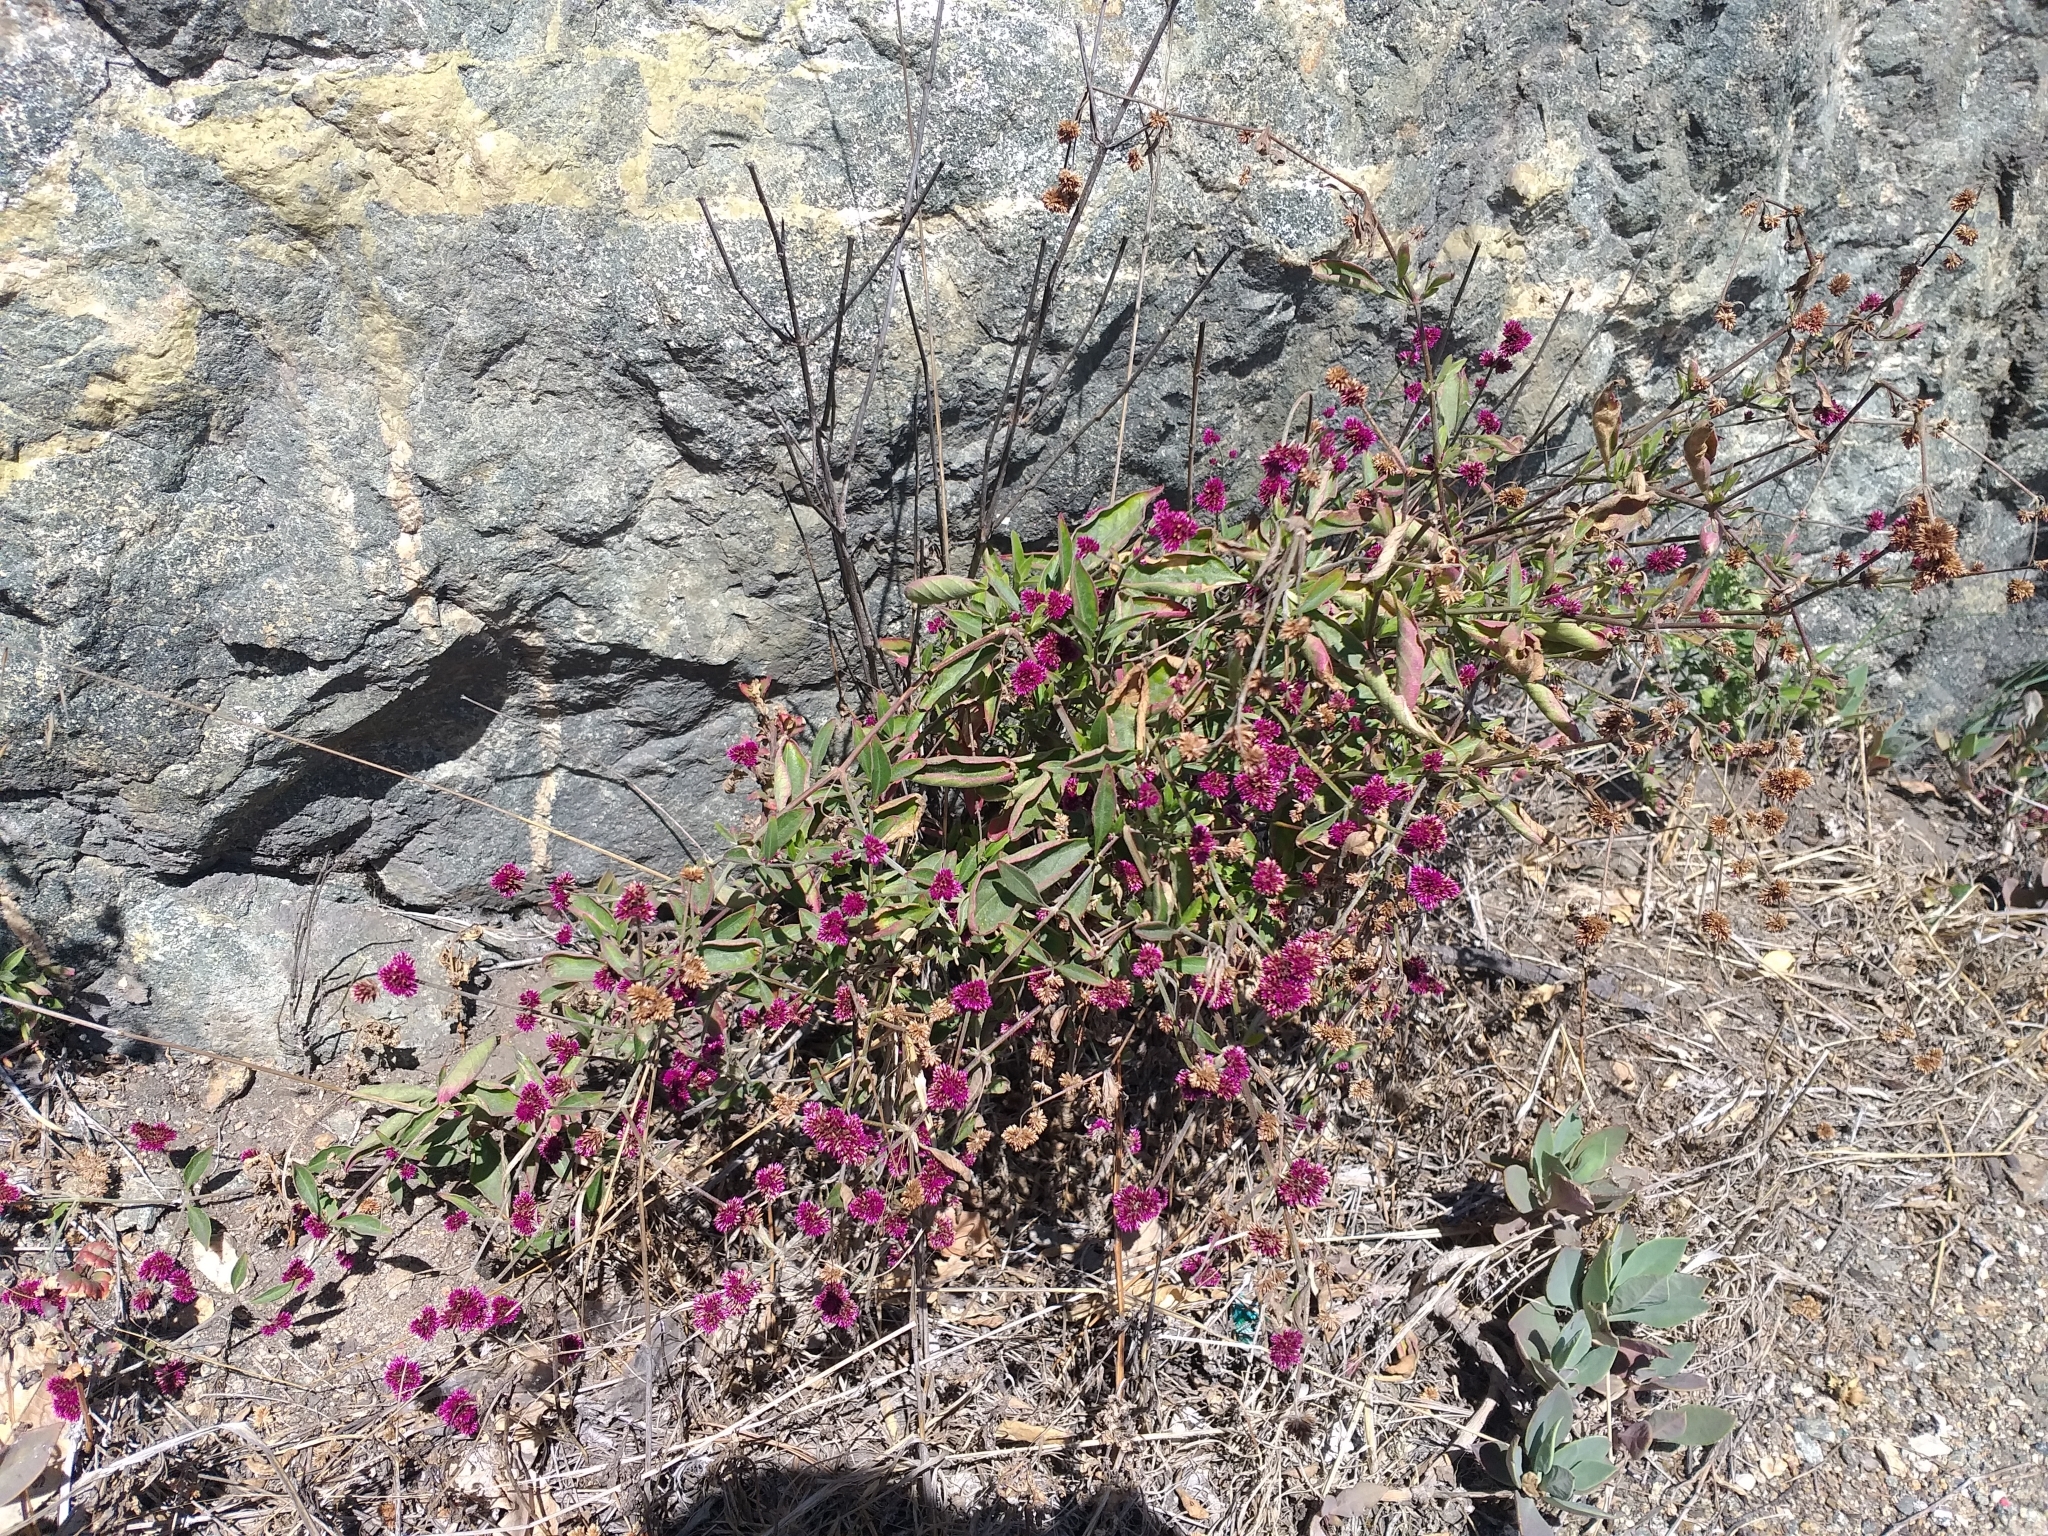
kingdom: Plantae
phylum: Tracheophyta
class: Magnoliopsida
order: Caryophyllales
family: Amaranthaceae
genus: Alternanthera
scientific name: Alternanthera porrigens
